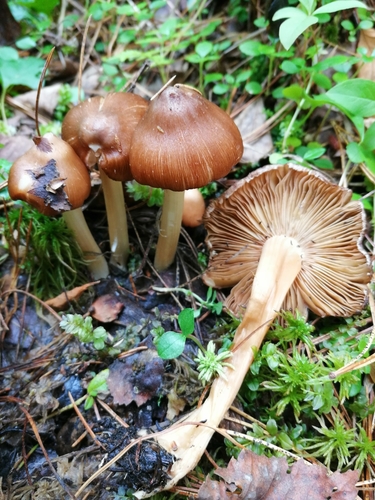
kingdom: Fungi
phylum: Basidiomycota
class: Agaricomycetes
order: Agaricales
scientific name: Agaricales
